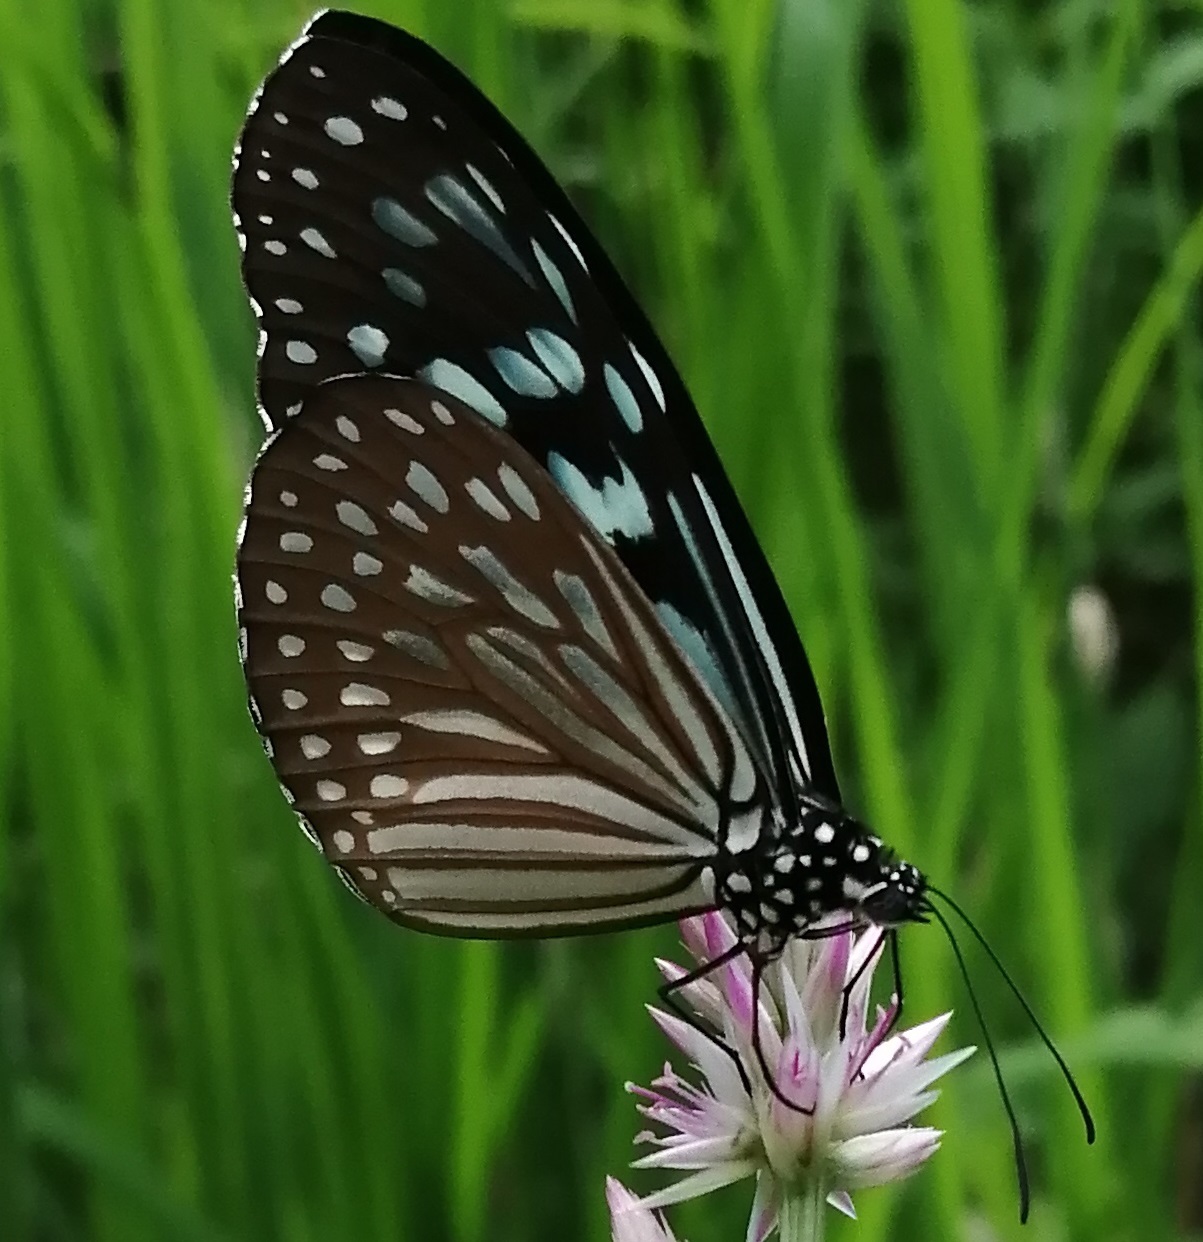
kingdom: Animalia
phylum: Arthropoda
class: Insecta
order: Lepidoptera
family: Nymphalidae
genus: Ideopsis
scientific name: Ideopsis similis
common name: Ceylon blue glassy tiger
